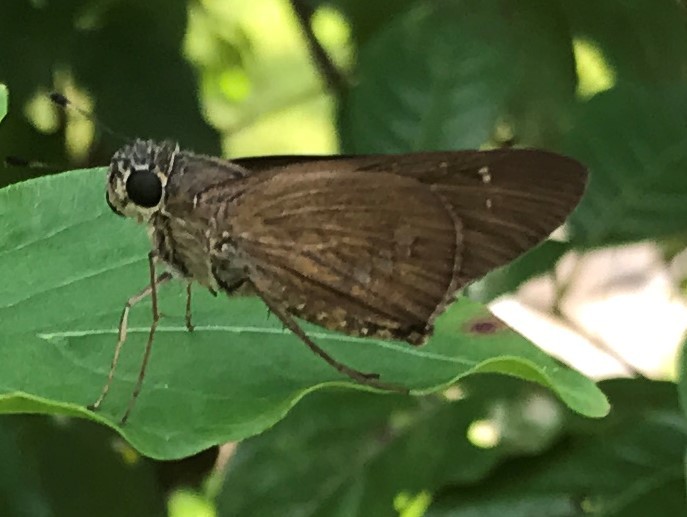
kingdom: Animalia
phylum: Arthropoda
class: Insecta
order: Lepidoptera
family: Hesperiidae
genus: Calpodes
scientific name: Calpodes ethlius
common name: Brazilian skipper
